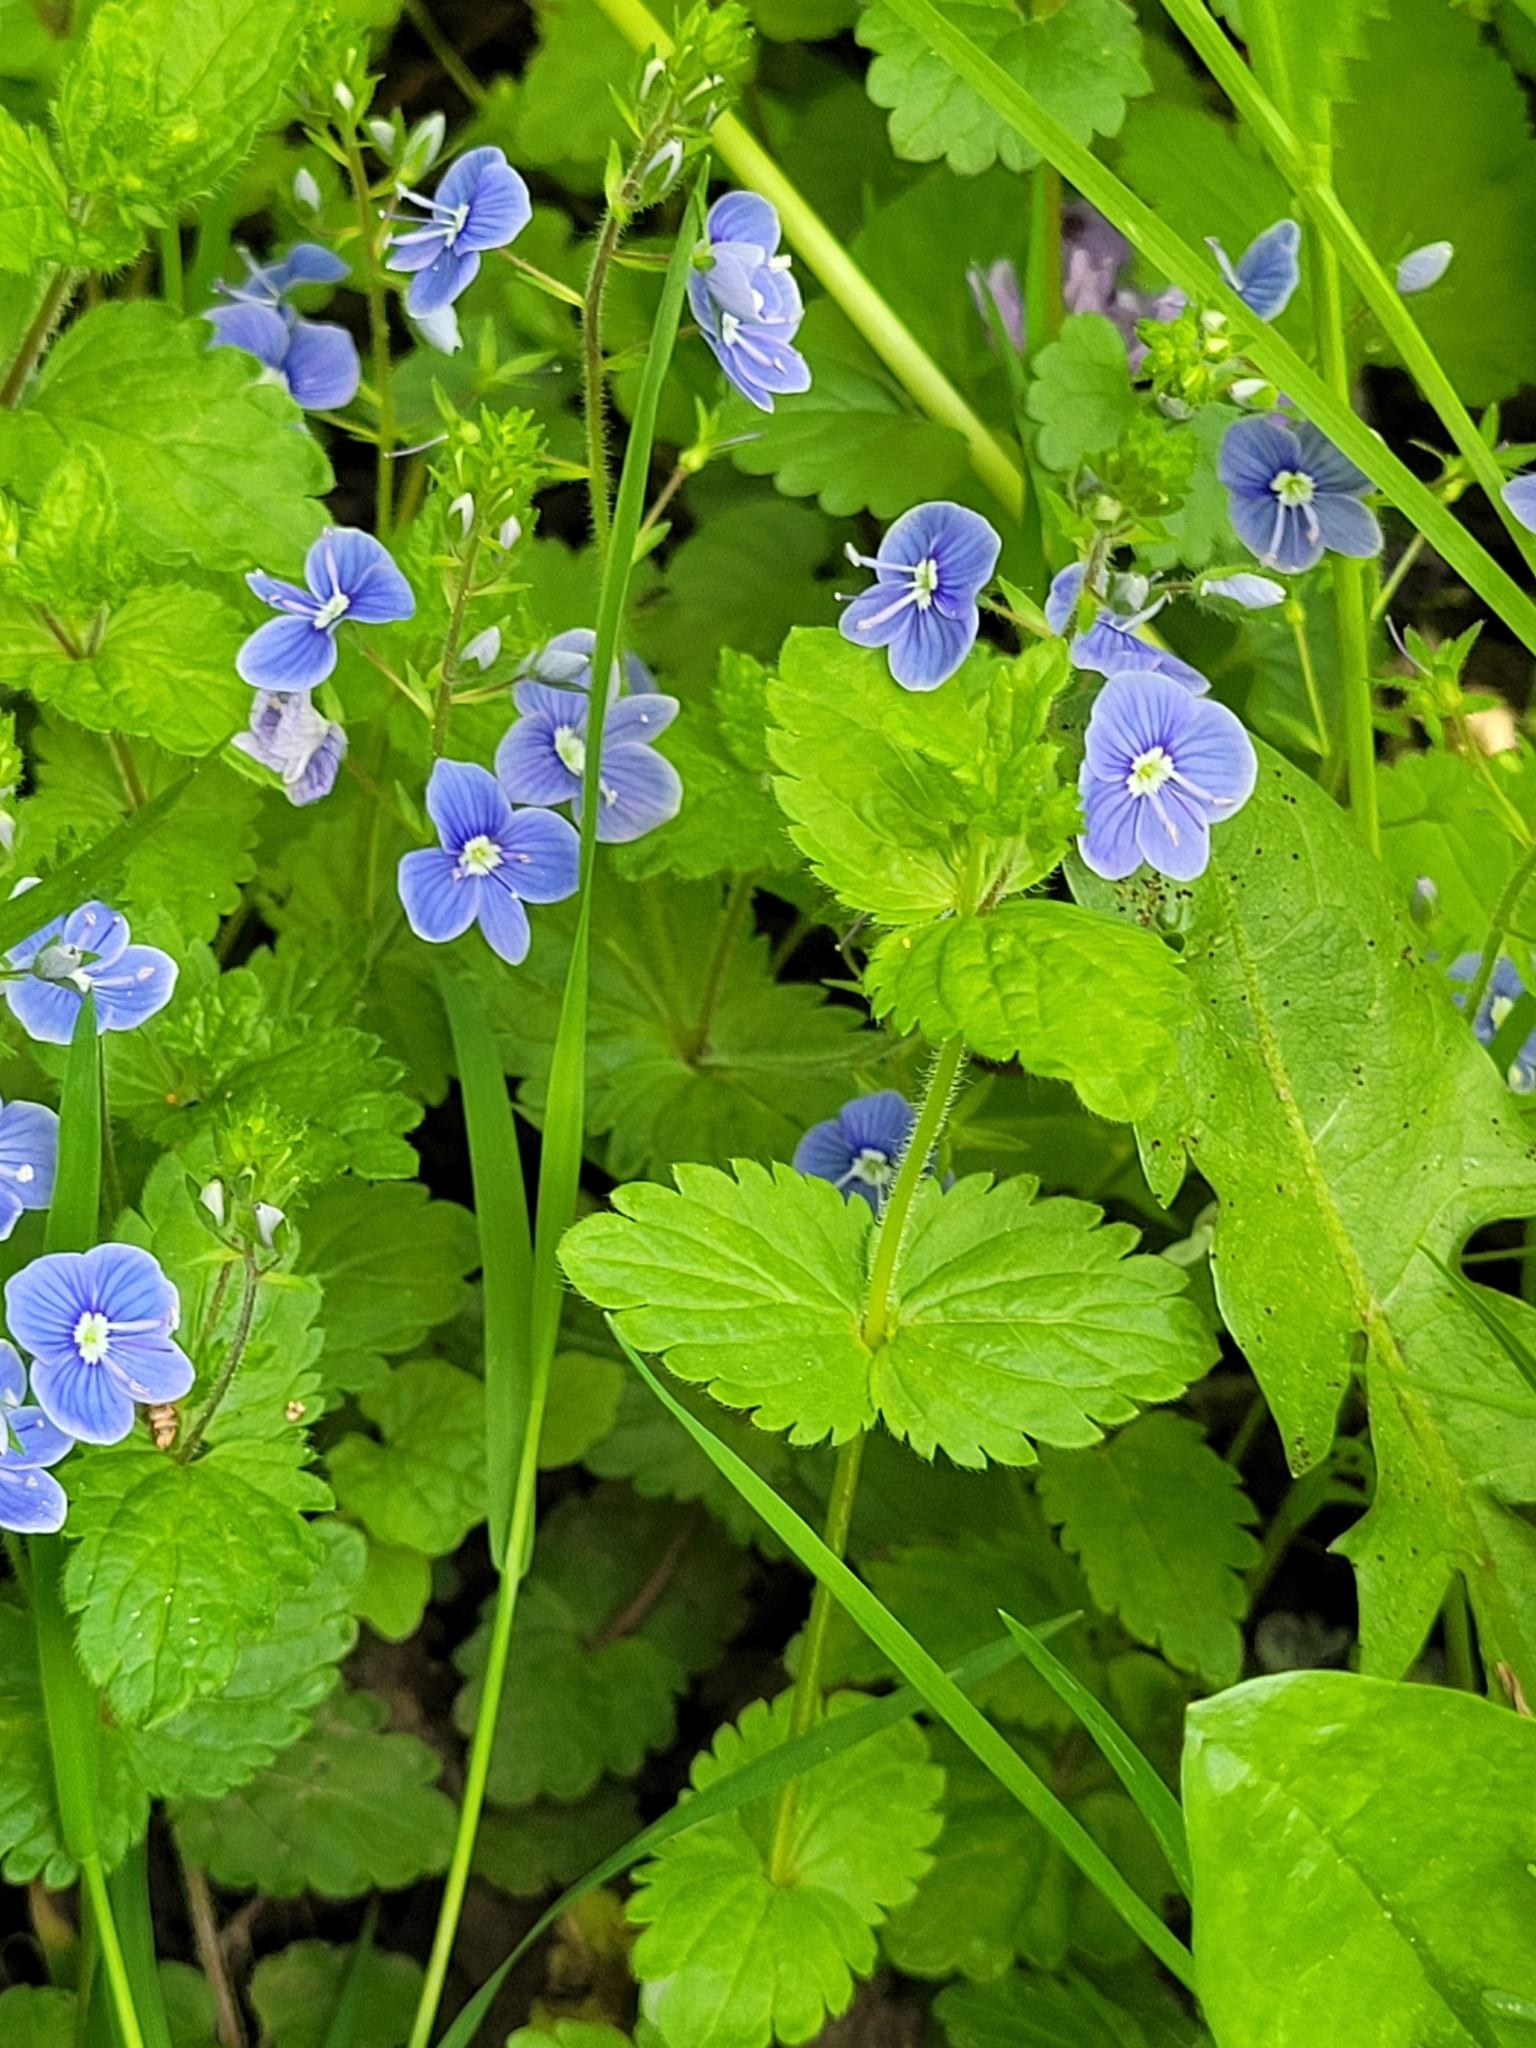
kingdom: Plantae
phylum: Tracheophyta
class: Magnoliopsida
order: Lamiales
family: Plantaginaceae
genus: Veronica
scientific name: Veronica chamaedrys
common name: Germander speedwell
